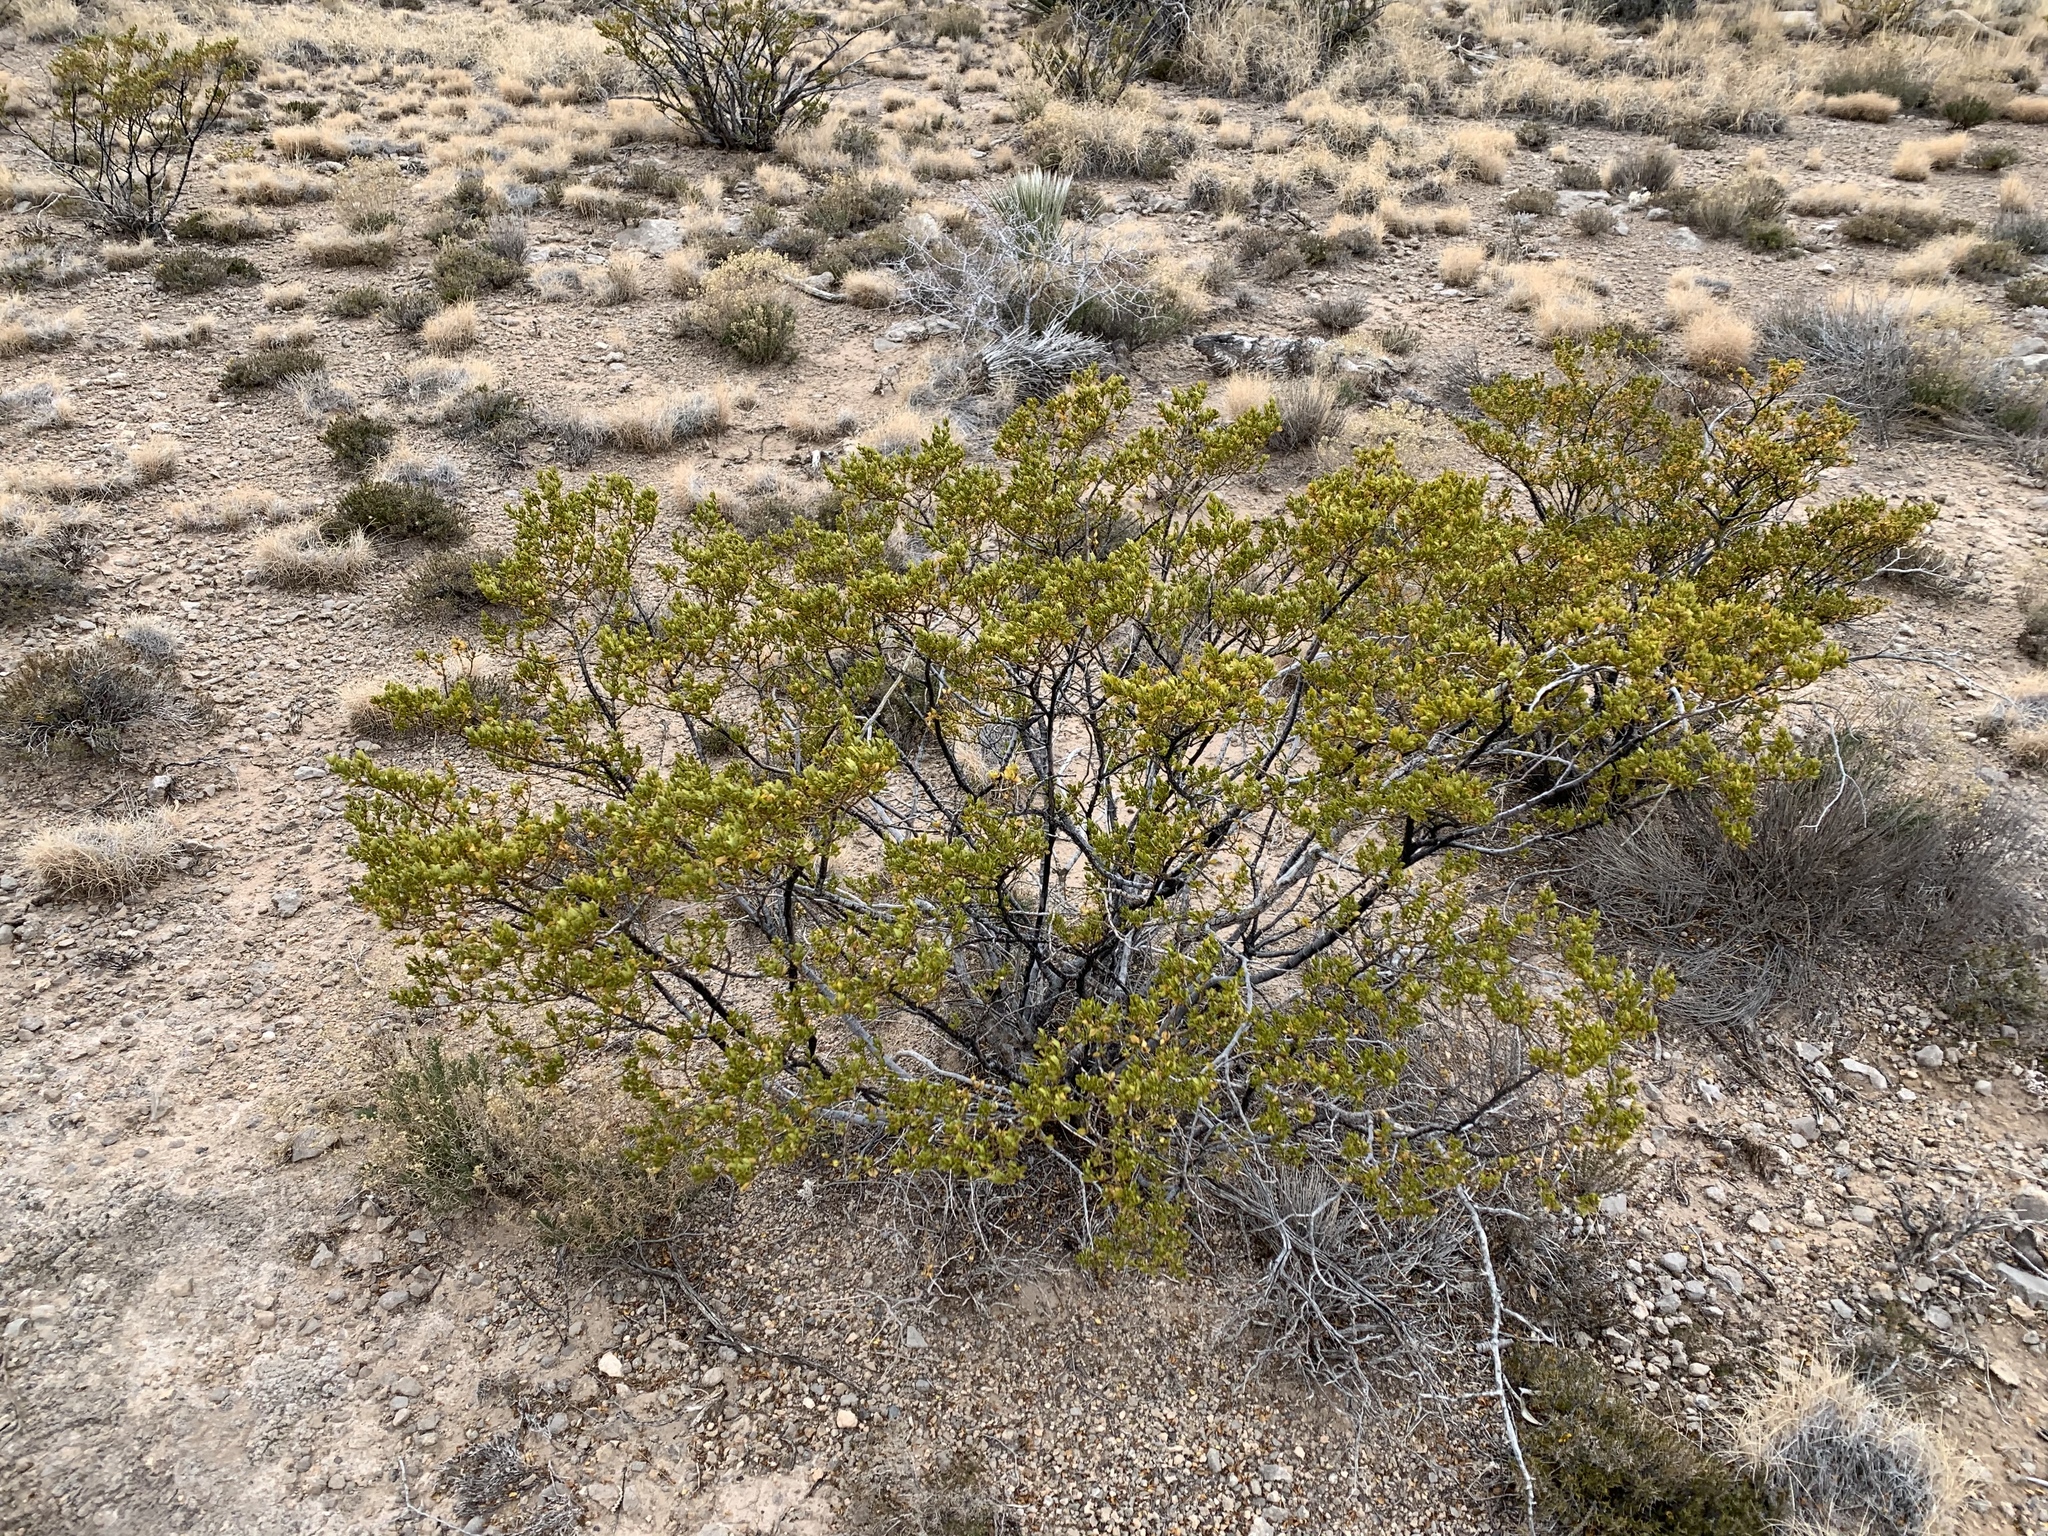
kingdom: Plantae
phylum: Tracheophyta
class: Magnoliopsida
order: Zygophyllales
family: Zygophyllaceae
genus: Larrea
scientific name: Larrea tridentata
